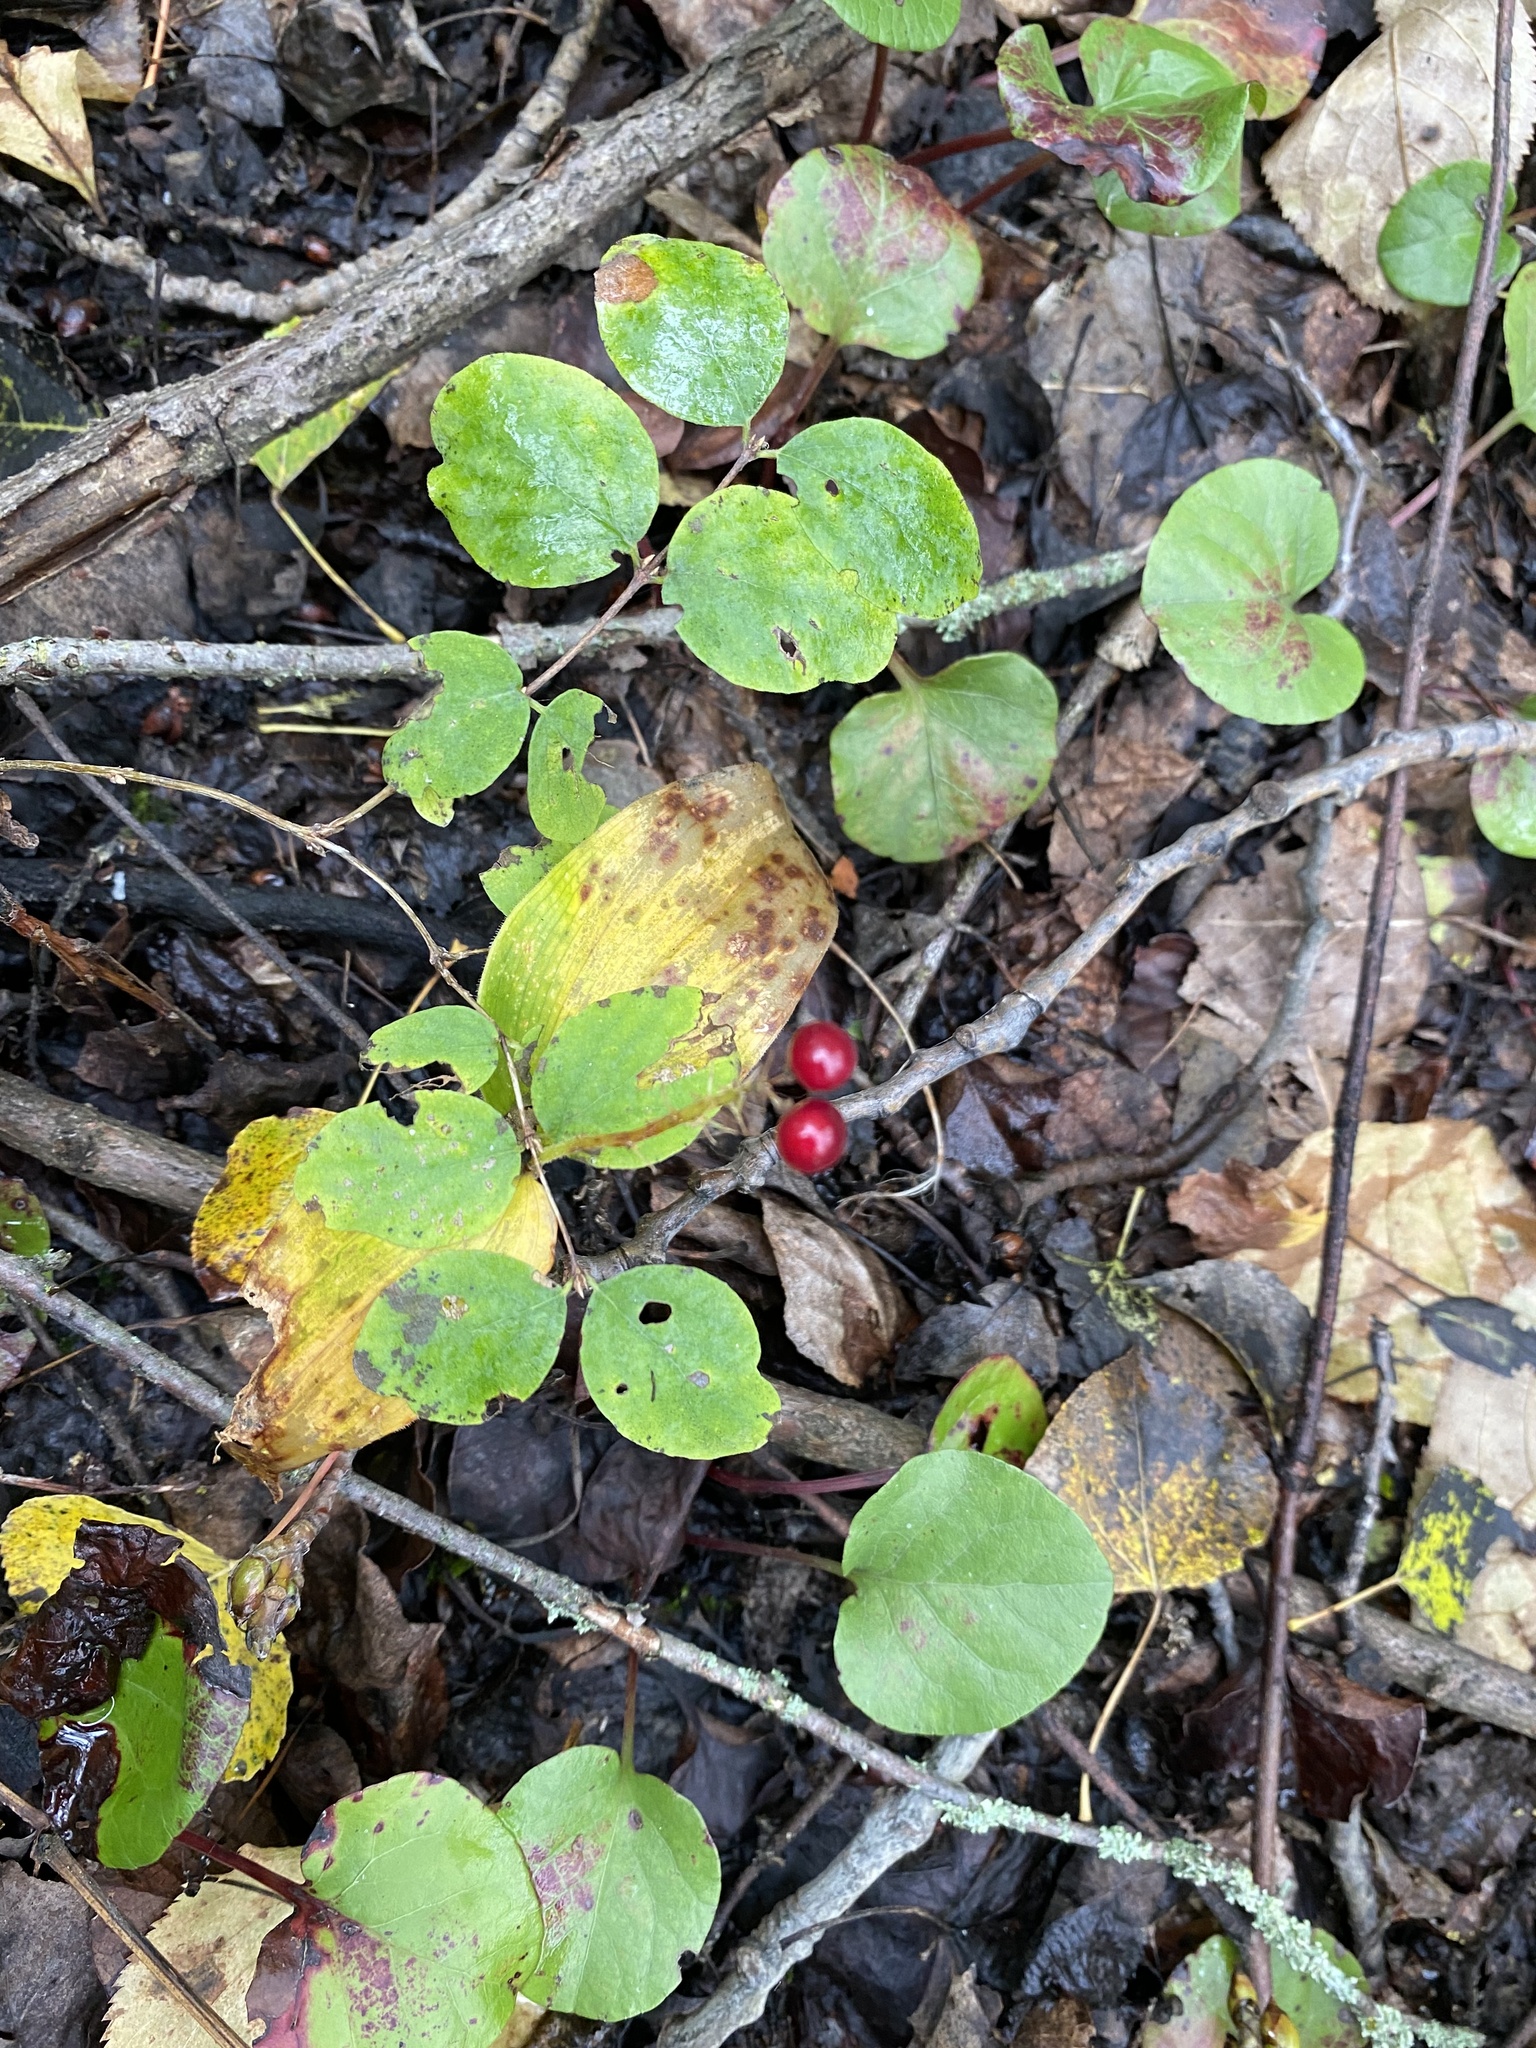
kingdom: Plantae
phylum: Tracheophyta
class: Liliopsida
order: Asparagales
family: Asparagaceae
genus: Maianthemum
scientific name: Maianthemum canadense
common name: False lily-of-the-valley
